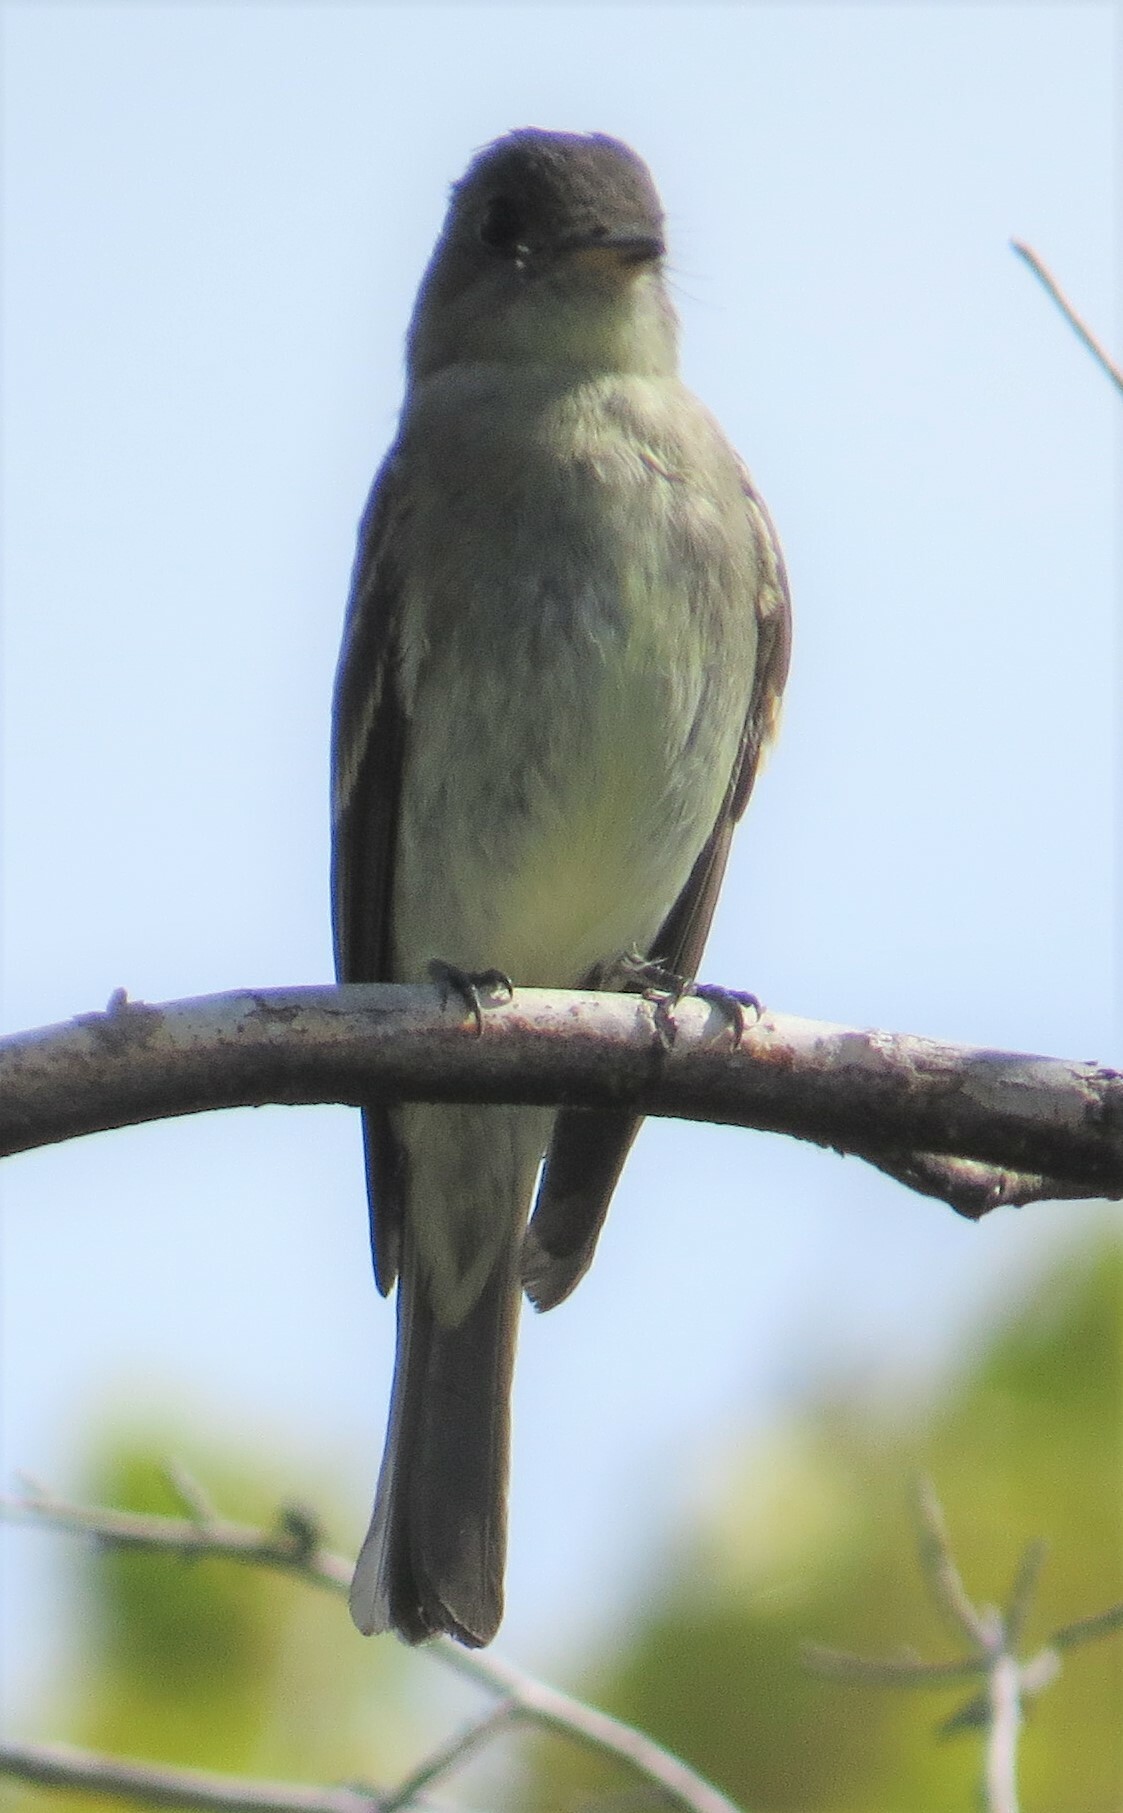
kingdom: Animalia
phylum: Chordata
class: Aves
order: Passeriformes
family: Tyrannidae
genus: Contopus
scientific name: Contopus virens
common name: Eastern wood-pewee
